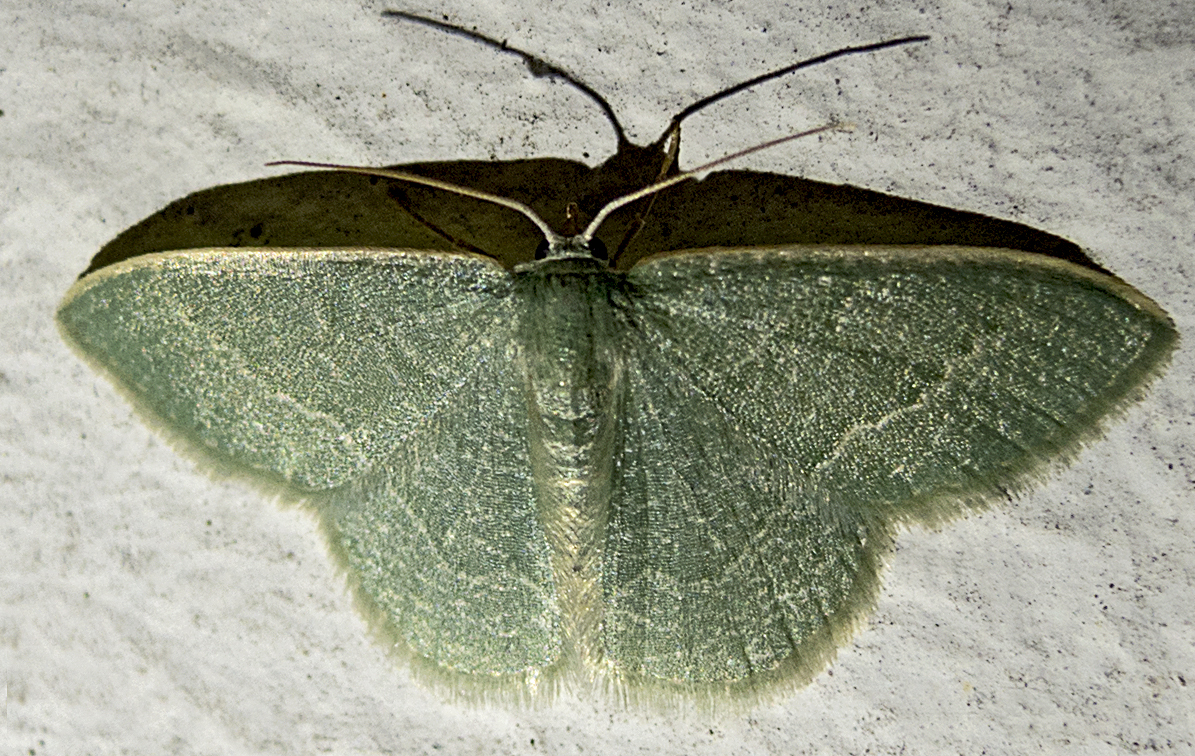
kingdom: Animalia
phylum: Arthropoda
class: Insecta
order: Lepidoptera
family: Geometridae
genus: Chlorissa
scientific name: Chlorissa etruscaria
